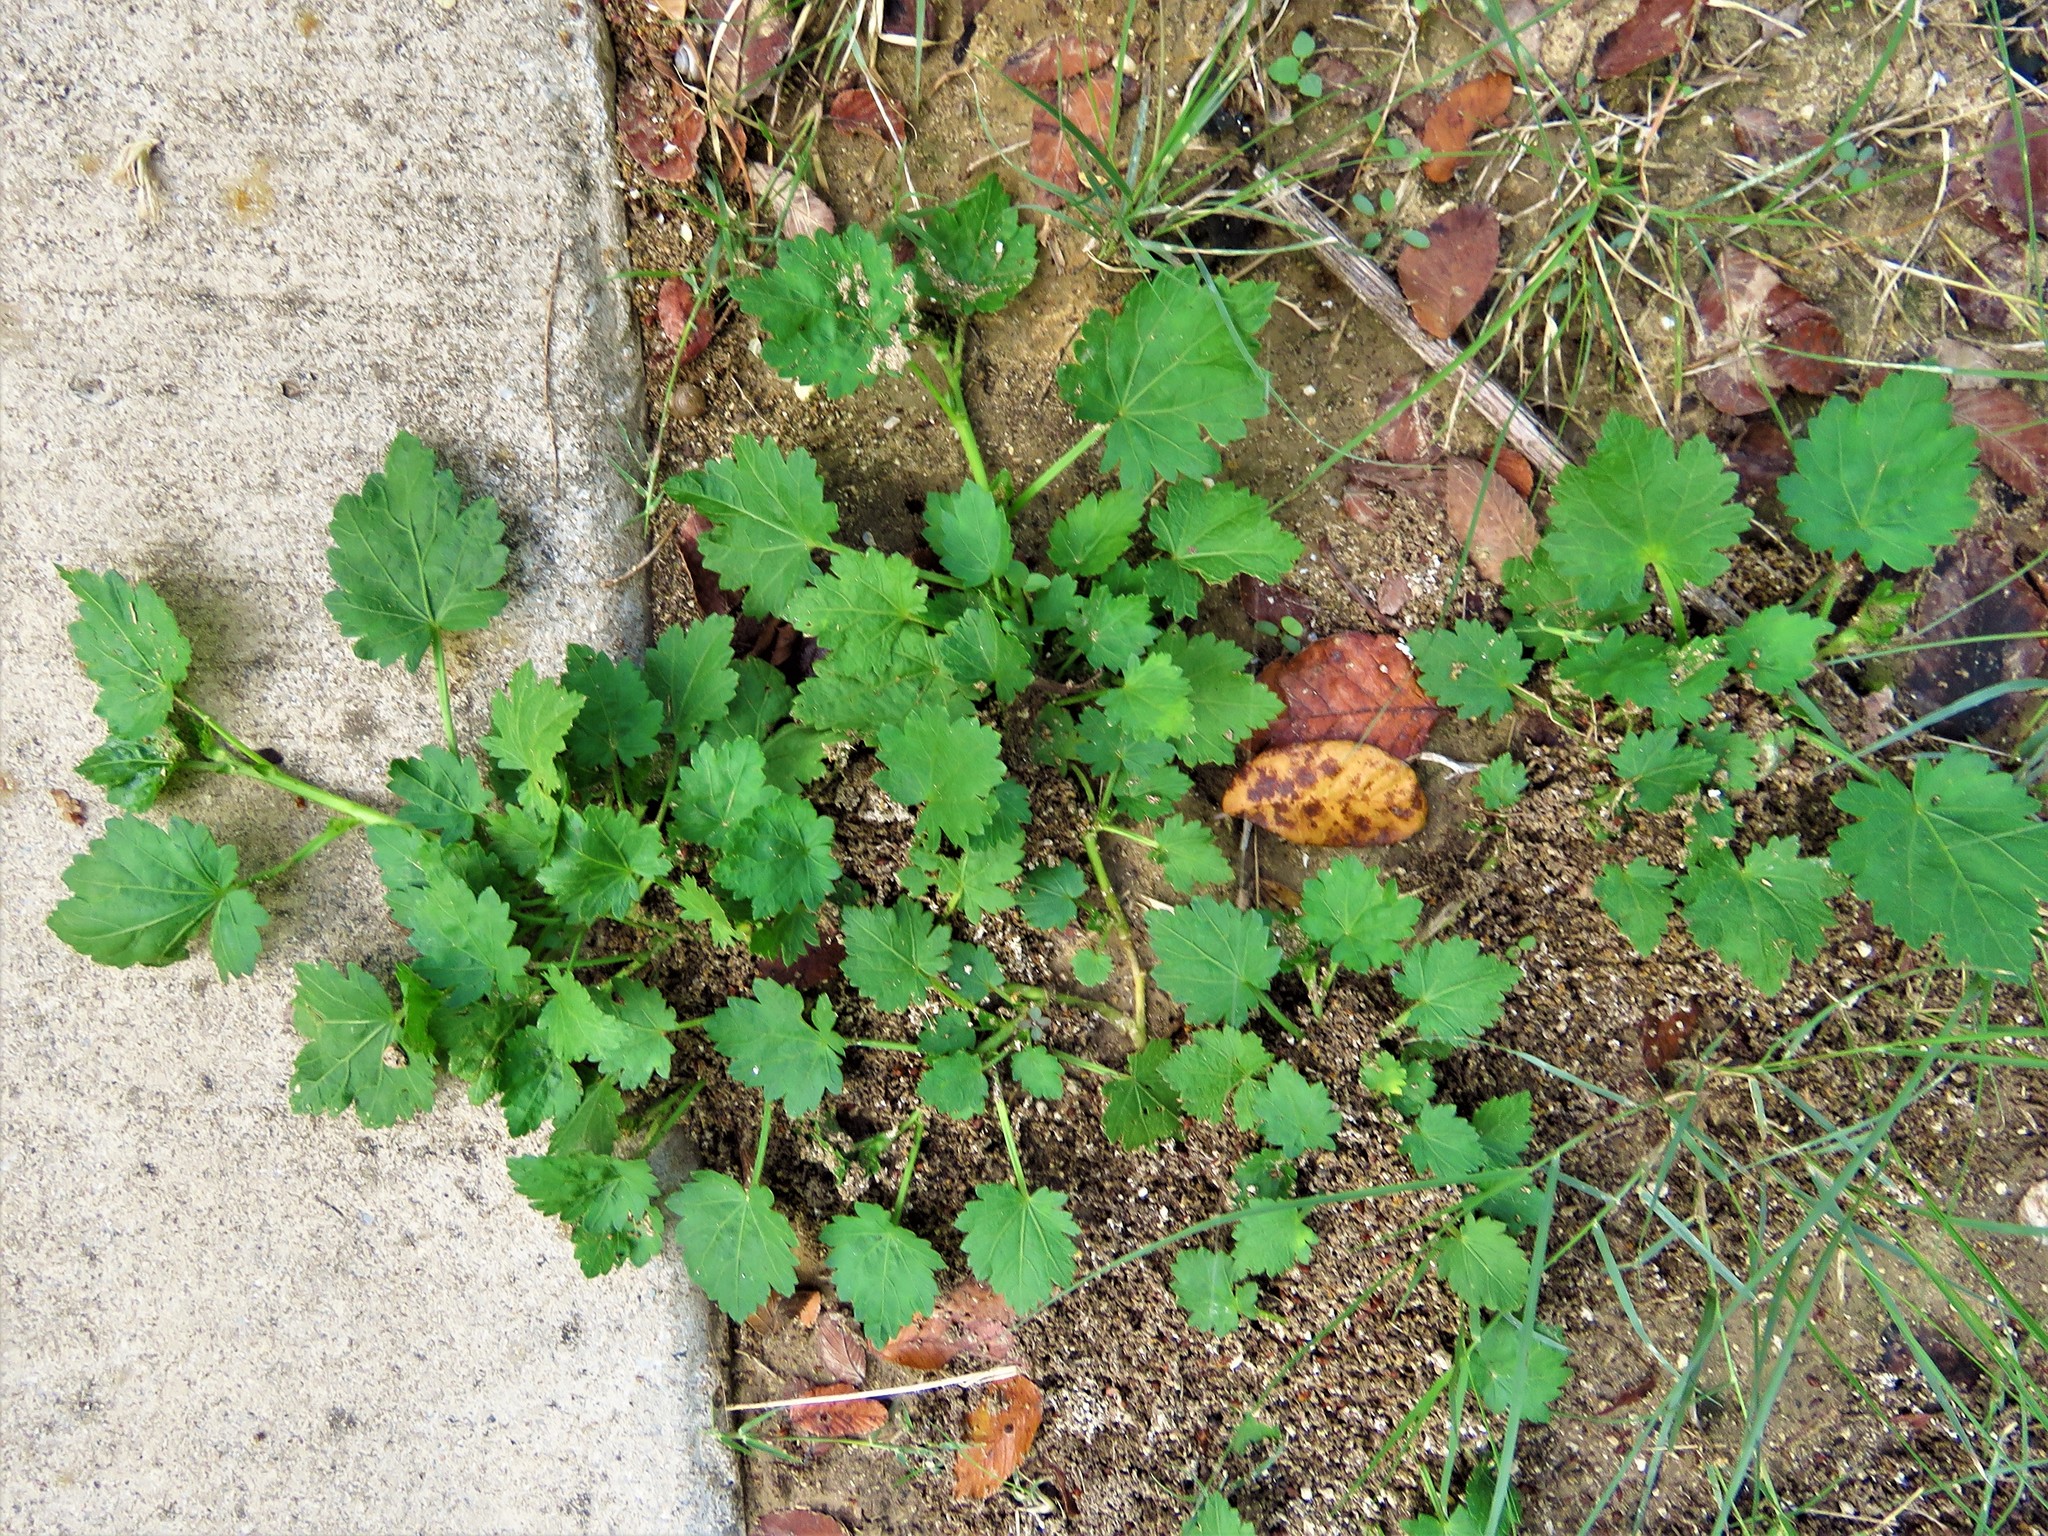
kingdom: Plantae
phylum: Tracheophyta
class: Magnoliopsida
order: Malvales
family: Malvaceae
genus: Modiola
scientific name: Modiola caroliniana
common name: Carolina bristlemallow
